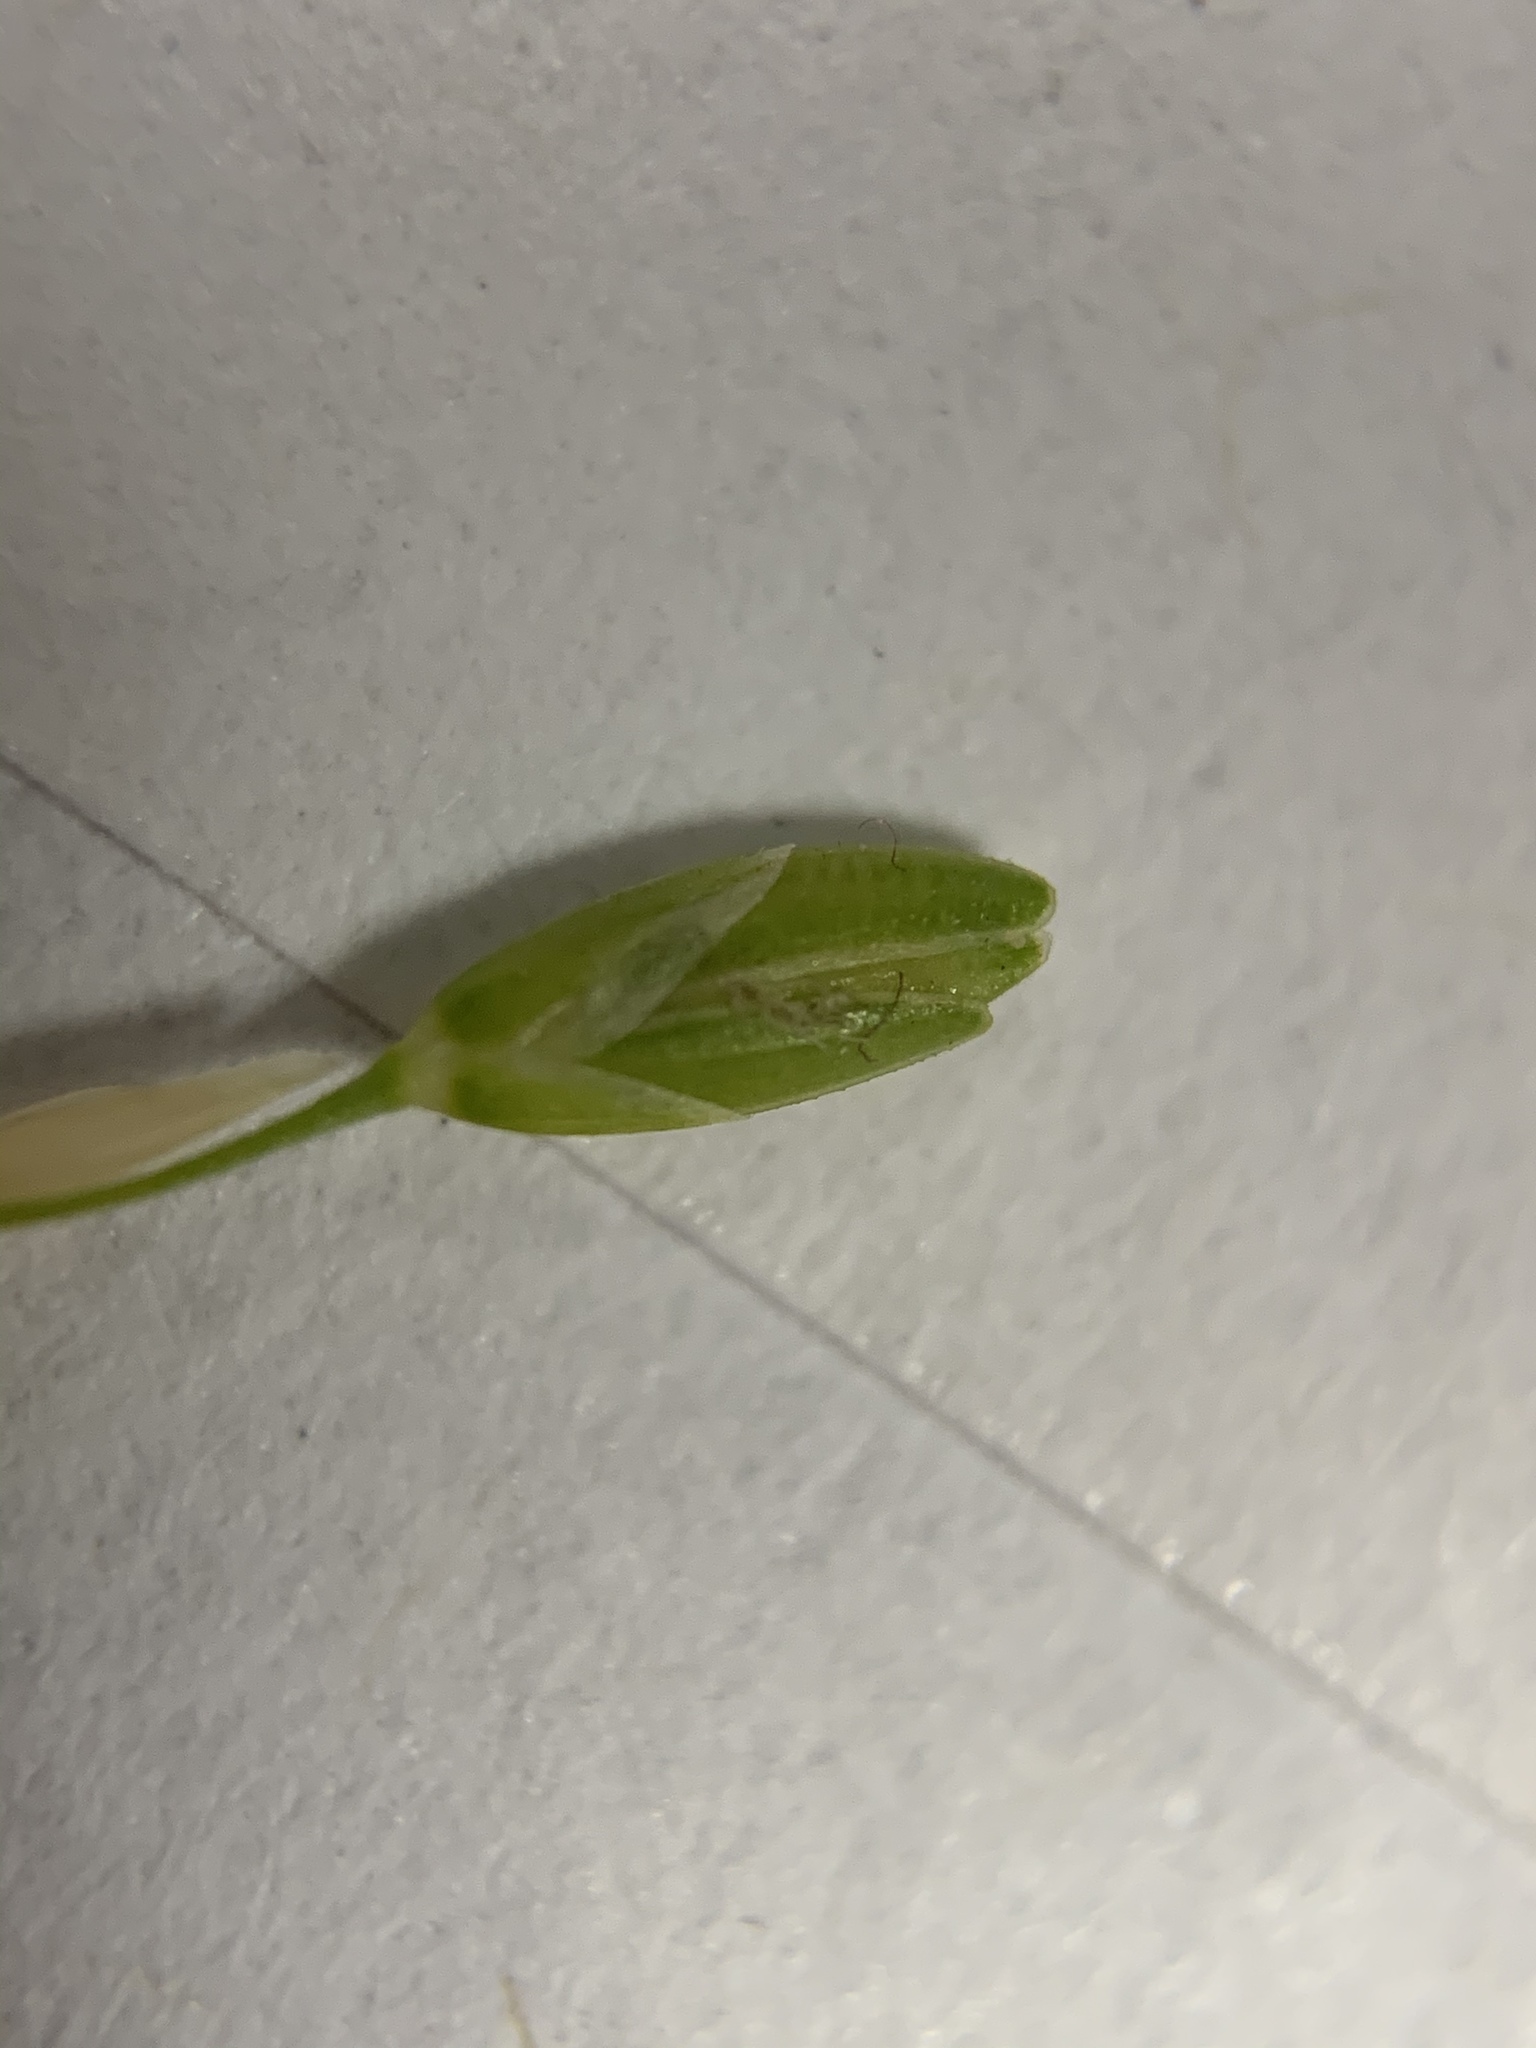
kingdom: Plantae
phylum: Tracheophyta
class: Liliopsida
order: Poales
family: Poaceae
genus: Ehrharta
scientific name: Ehrharta erecta
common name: Panic veldtgrass
